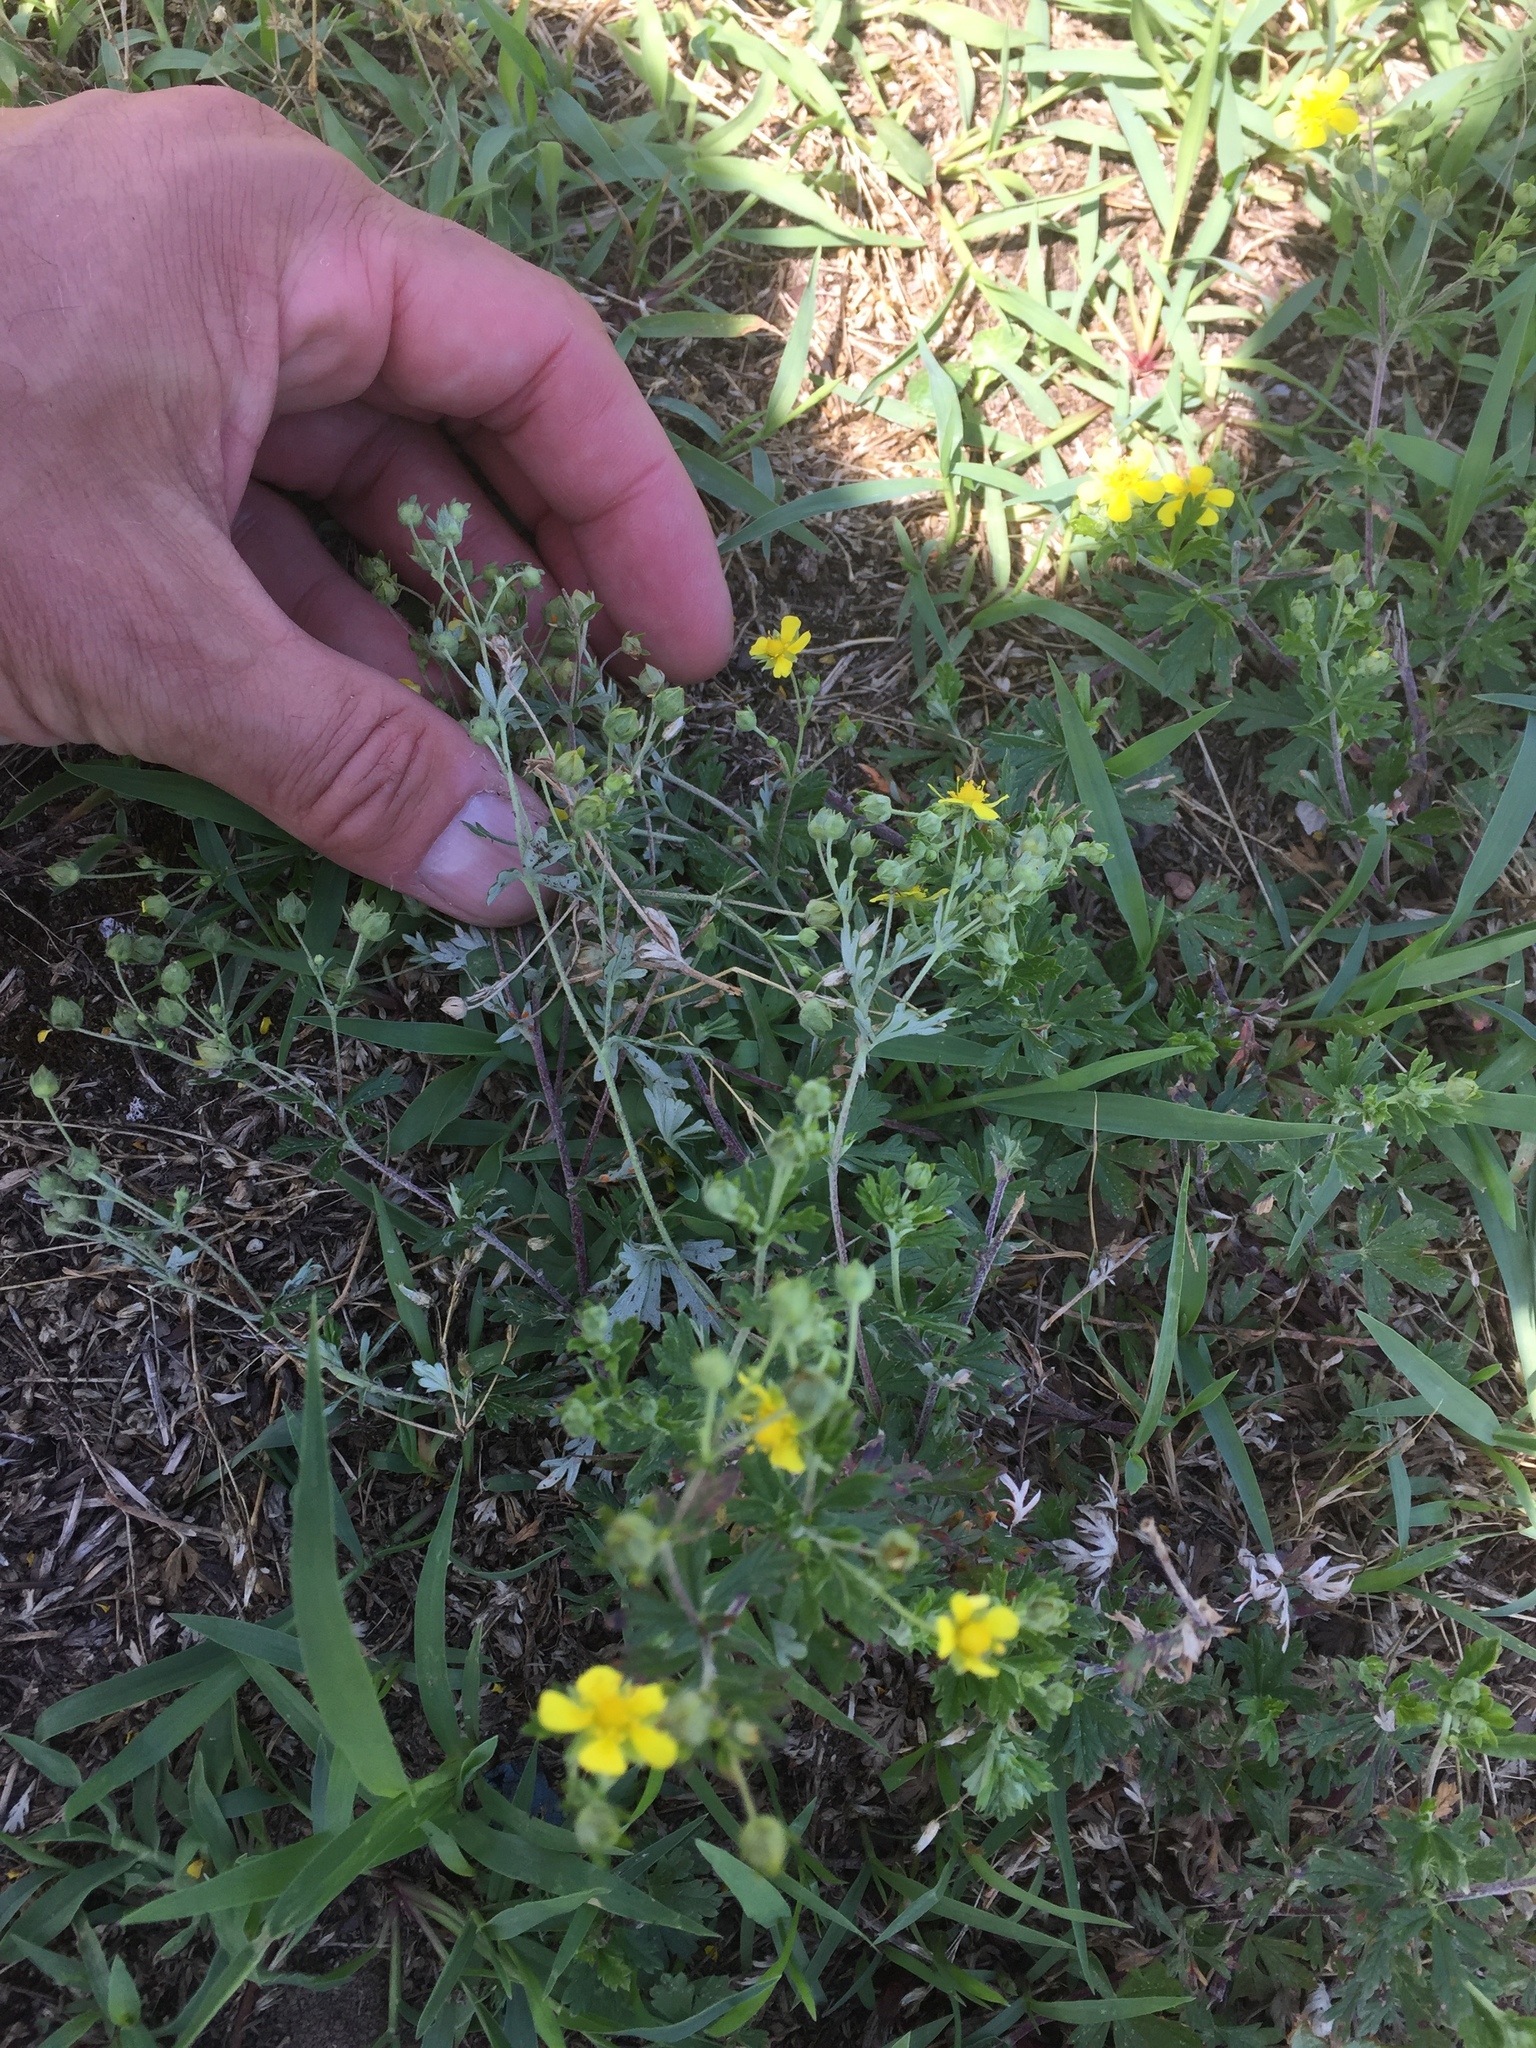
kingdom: Plantae
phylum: Tracheophyta
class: Magnoliopsida
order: Rosales
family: Rosaceae
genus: Potentilla
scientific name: Potentilla argentea
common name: Hoary cinquefoil
